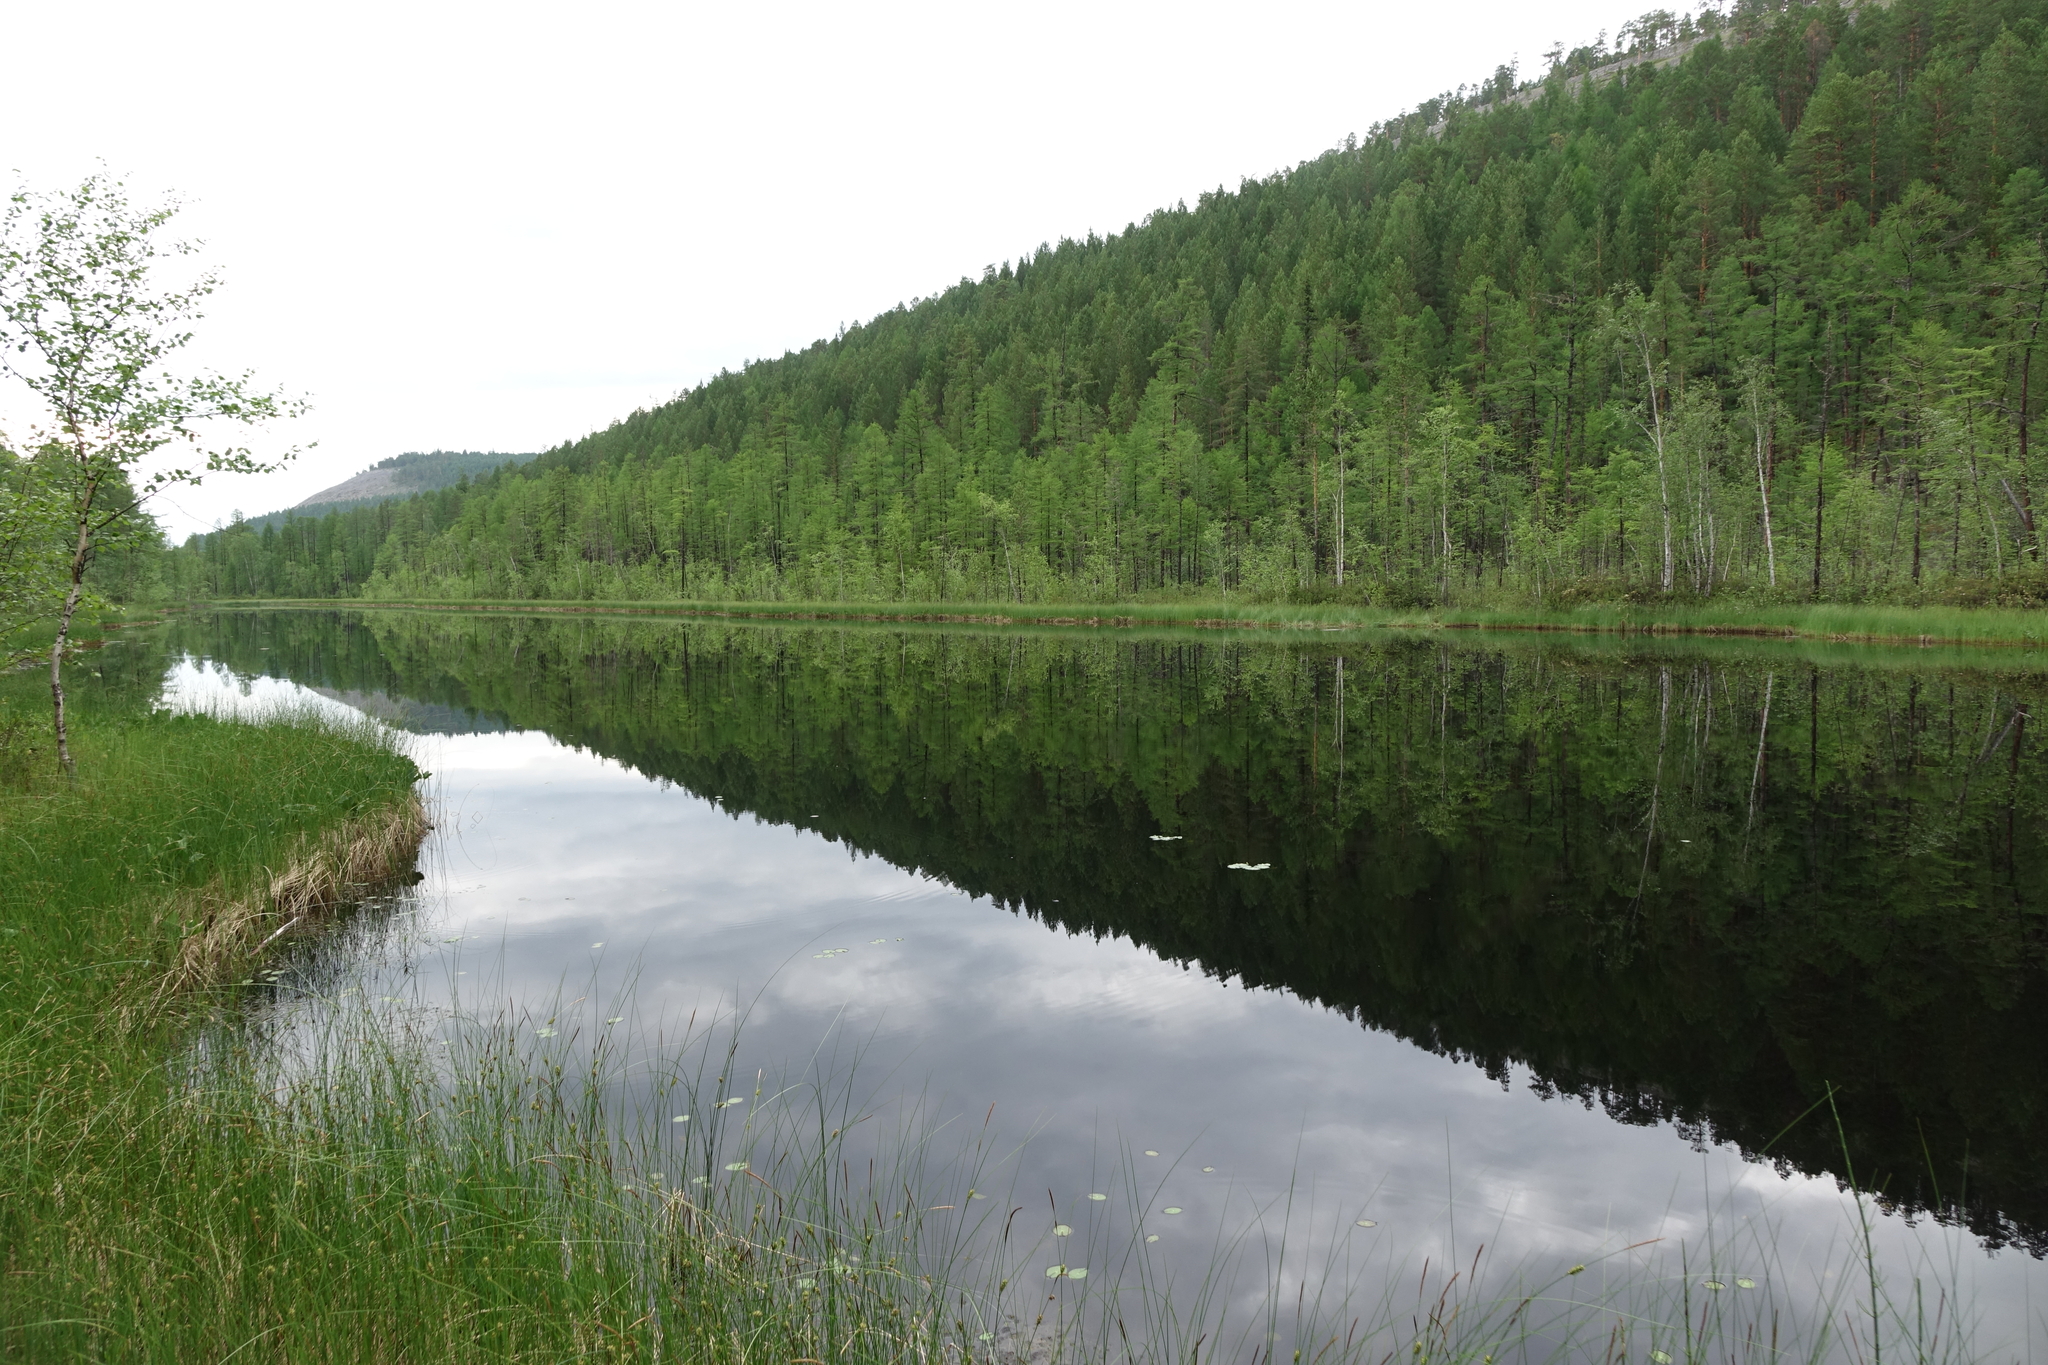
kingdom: Plantae
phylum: Tracheophyta
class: Pinopsida
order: Pinales
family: Pinaceae
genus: Larix
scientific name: Larix gmelinii
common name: Dahurian larch
